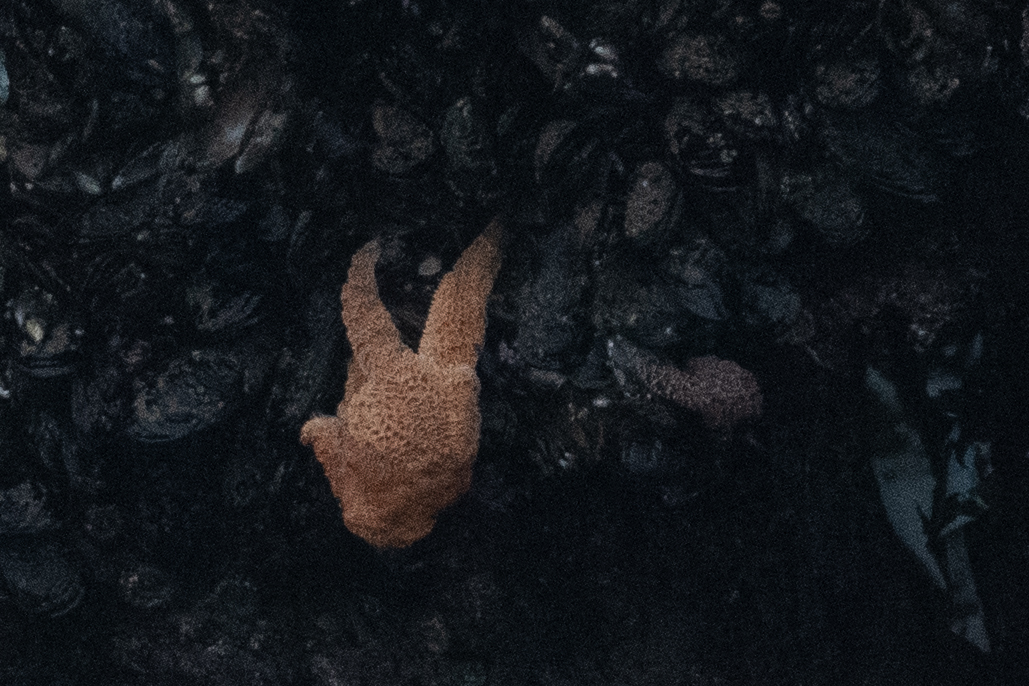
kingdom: Animalia
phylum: Echinodermata
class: Asteroidea
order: Forcipulatida
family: Asteriidae
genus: Pisaster
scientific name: Pisaster ochraceus
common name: Ochre stars
